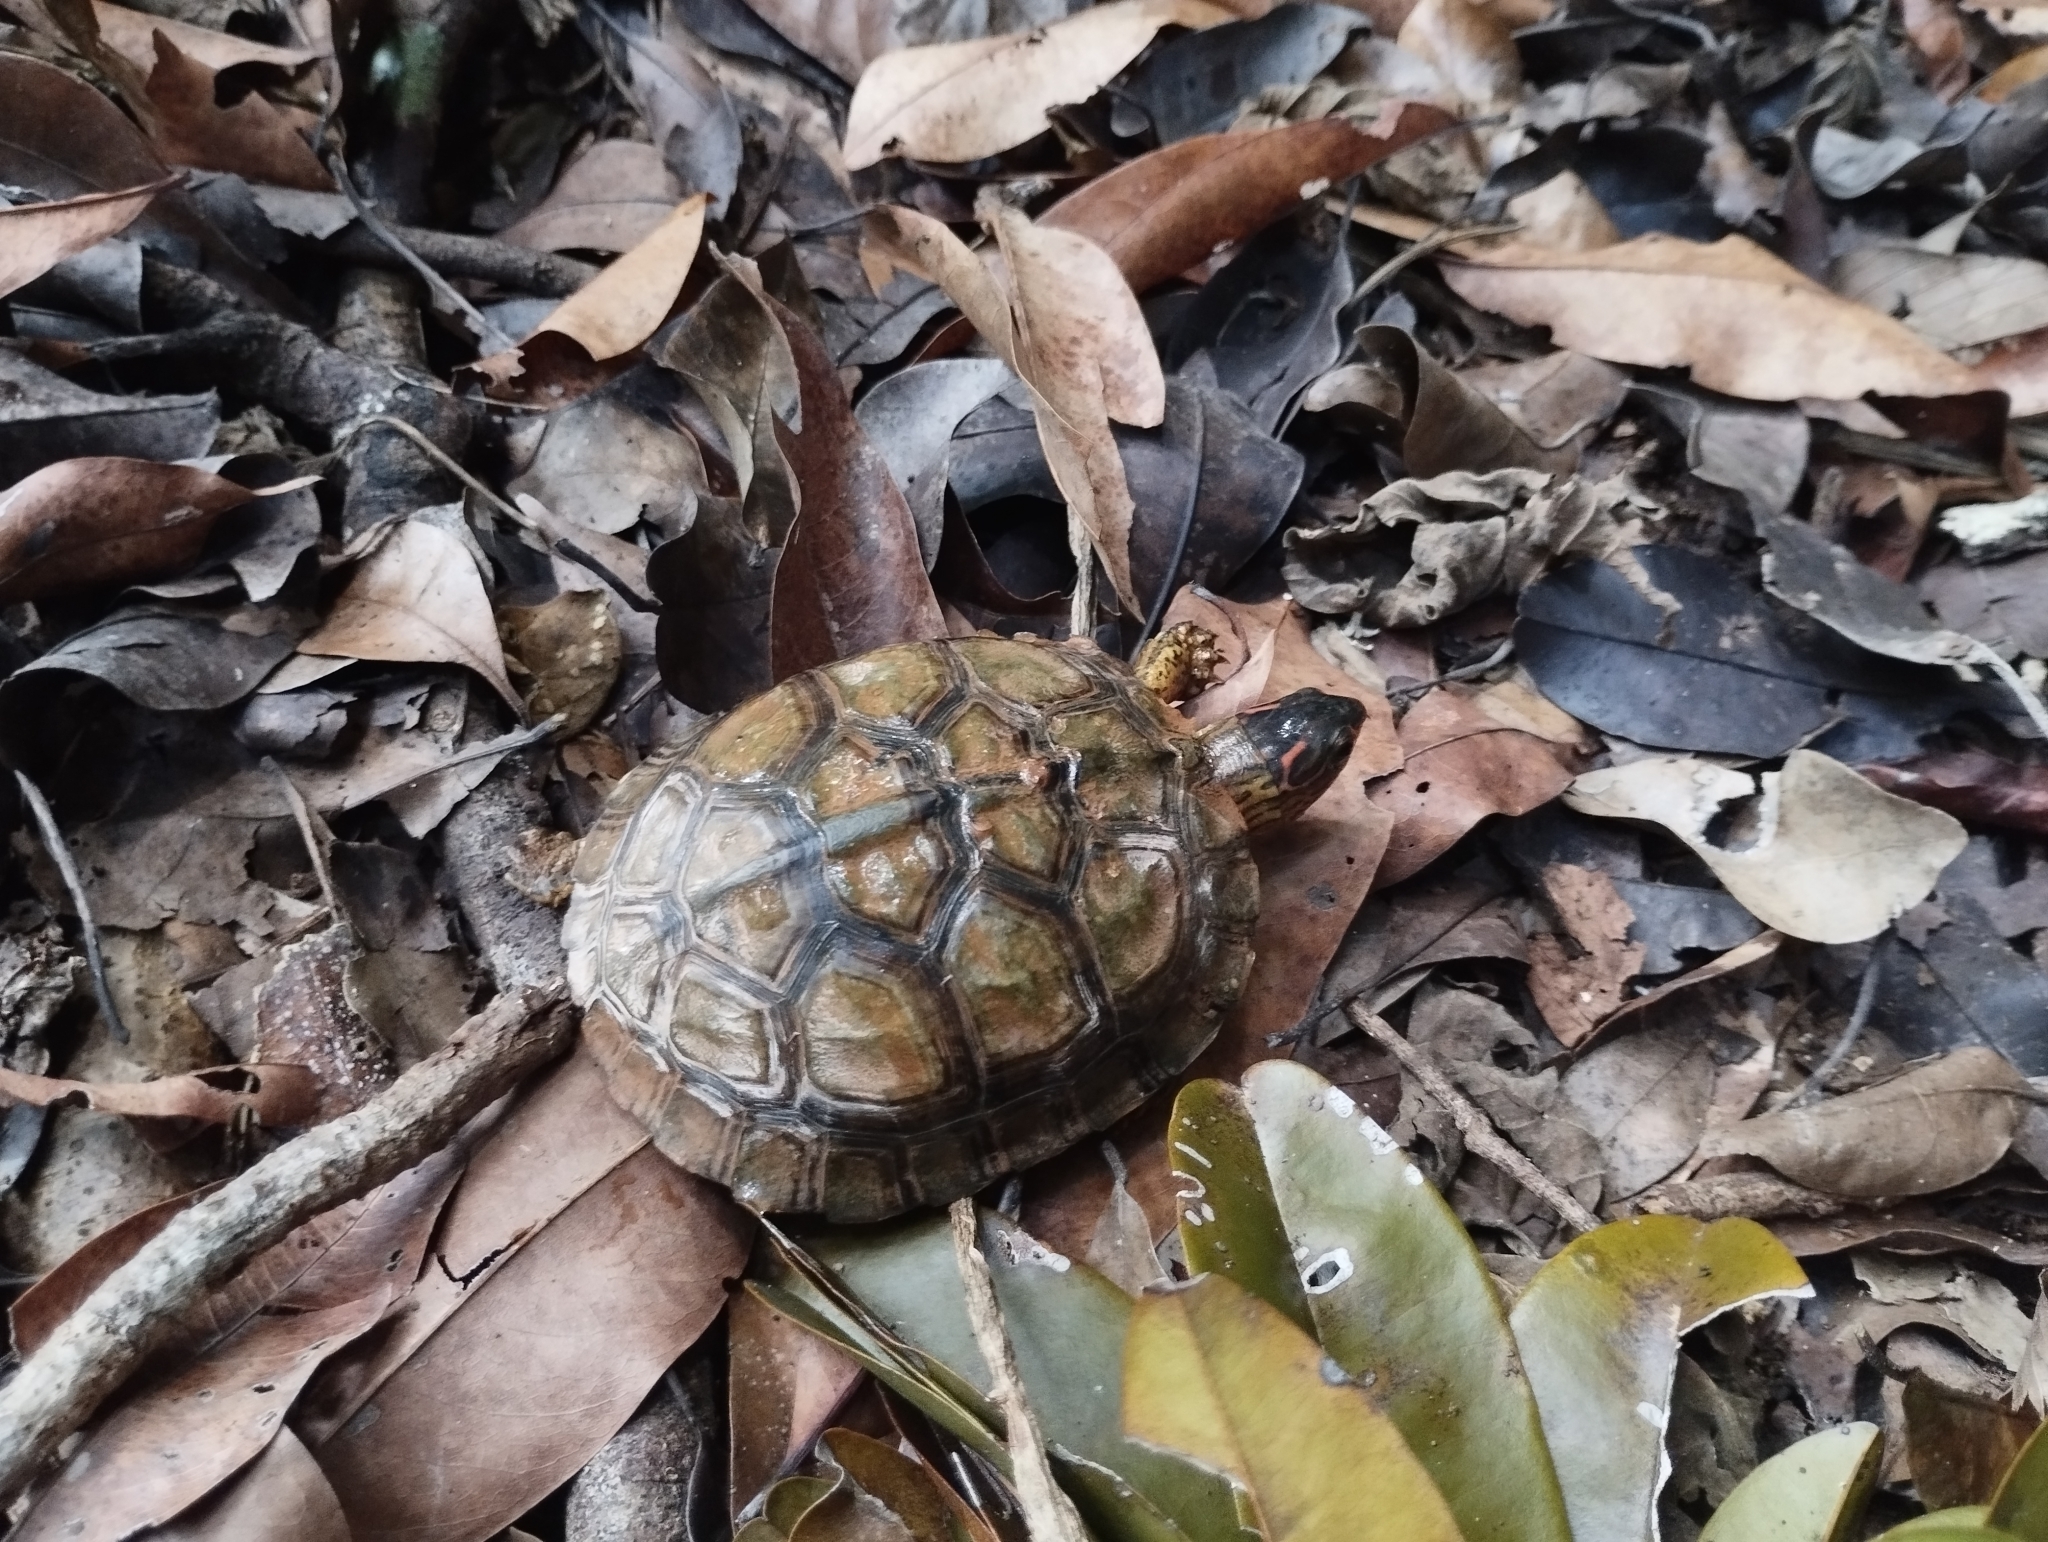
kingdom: Animalia
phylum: Chordata
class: Testudines
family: Geoemydidae
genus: Rhinoclemmys
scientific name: Rhinoclemmys areolata
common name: Furrowed wood turtle
